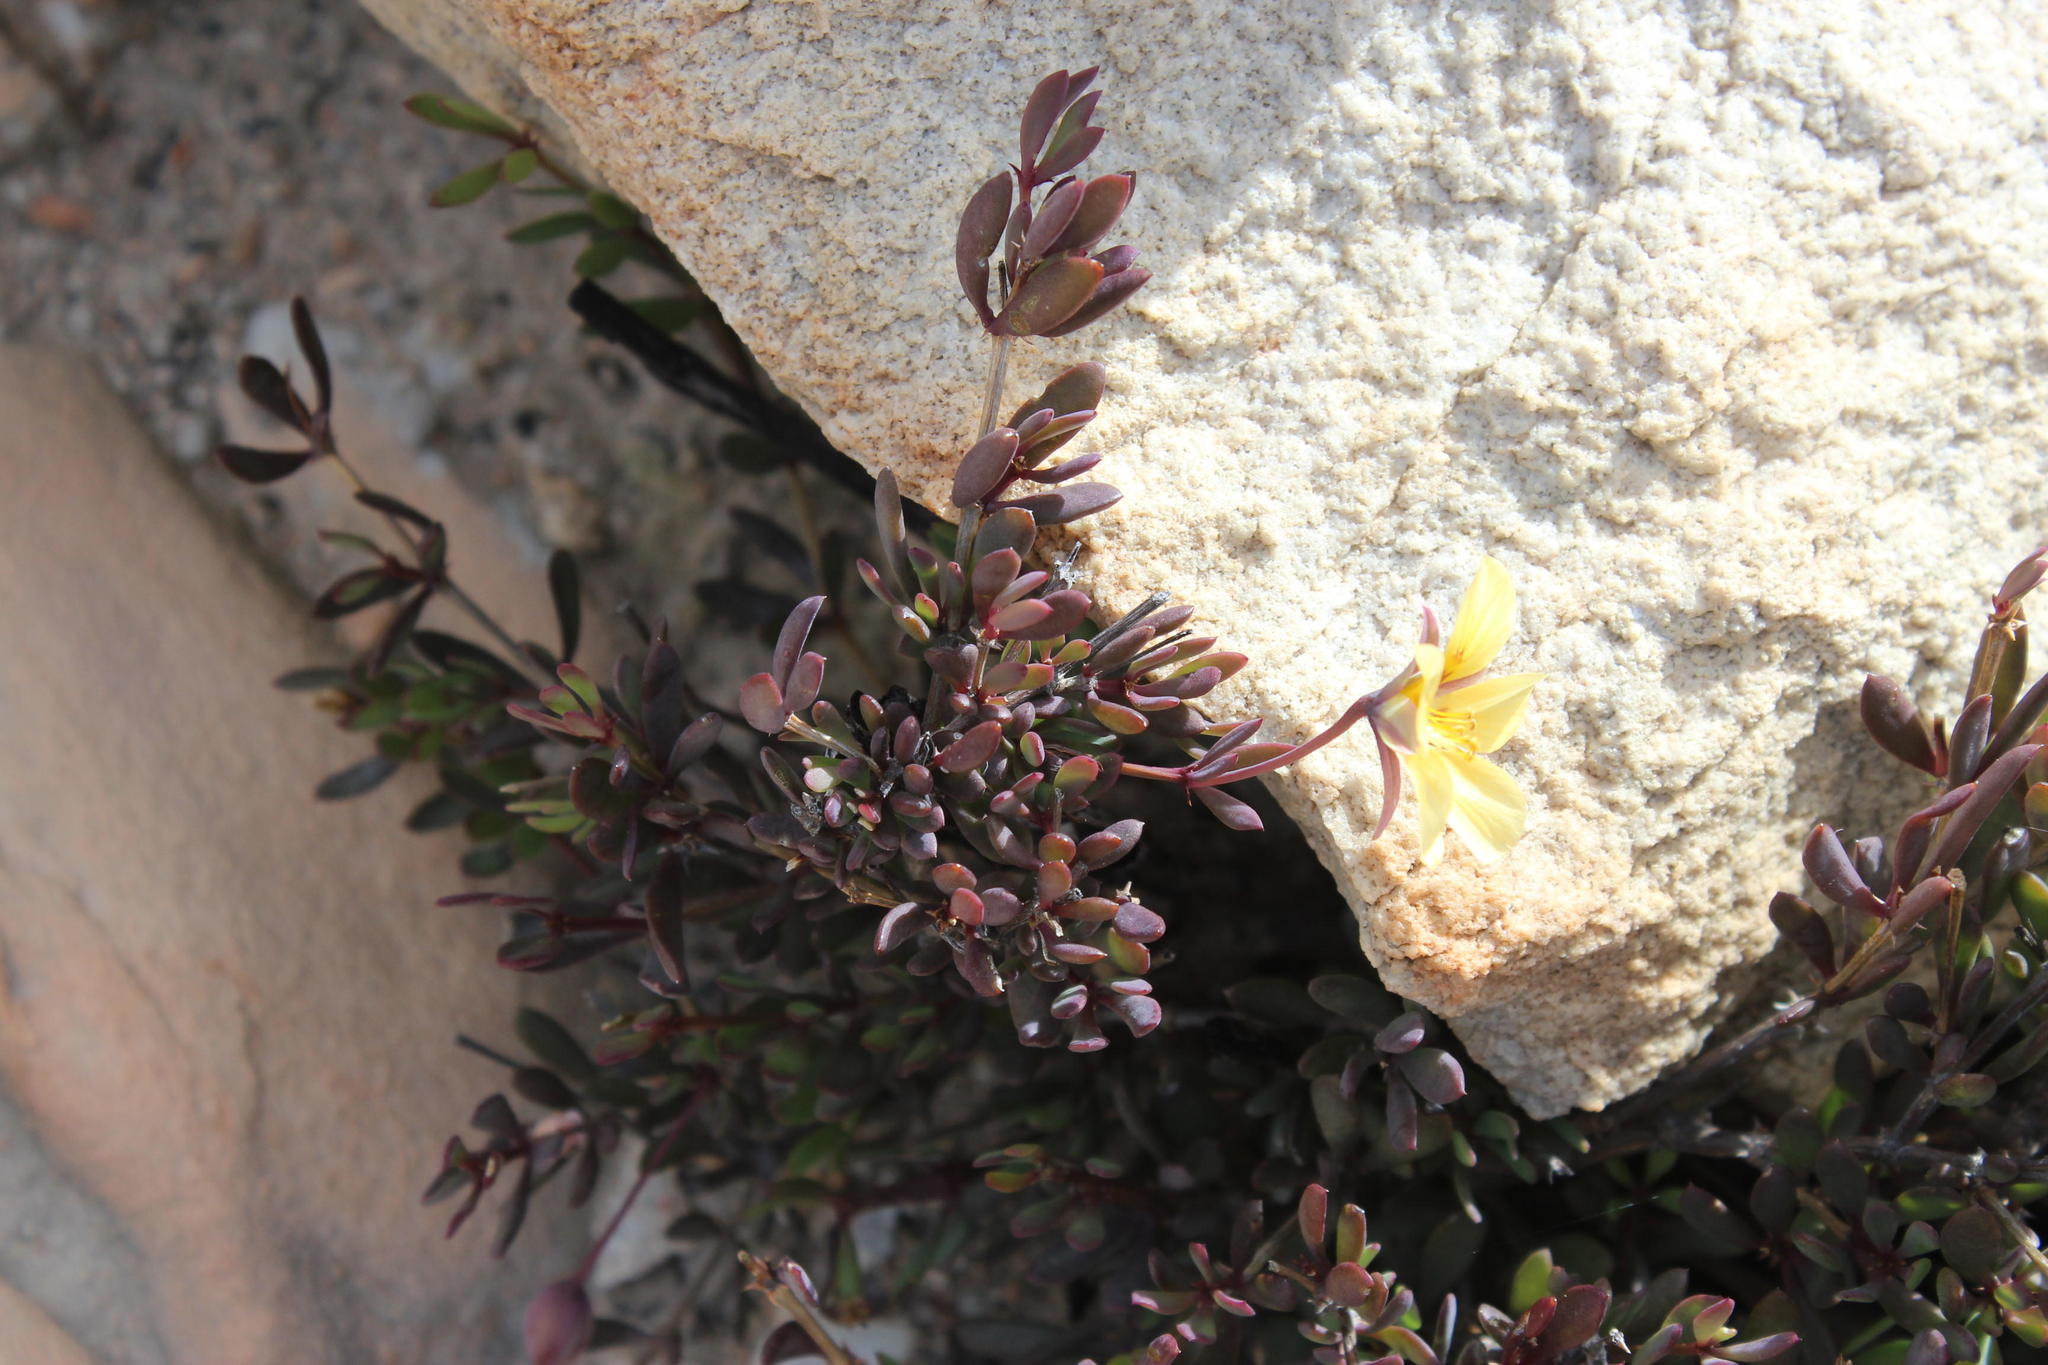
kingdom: Plantae
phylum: Tracheophyta
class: Magnoliopsida
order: Zygophyllales
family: Zygophyllaceae
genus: Roepera
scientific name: Roepera fulva
